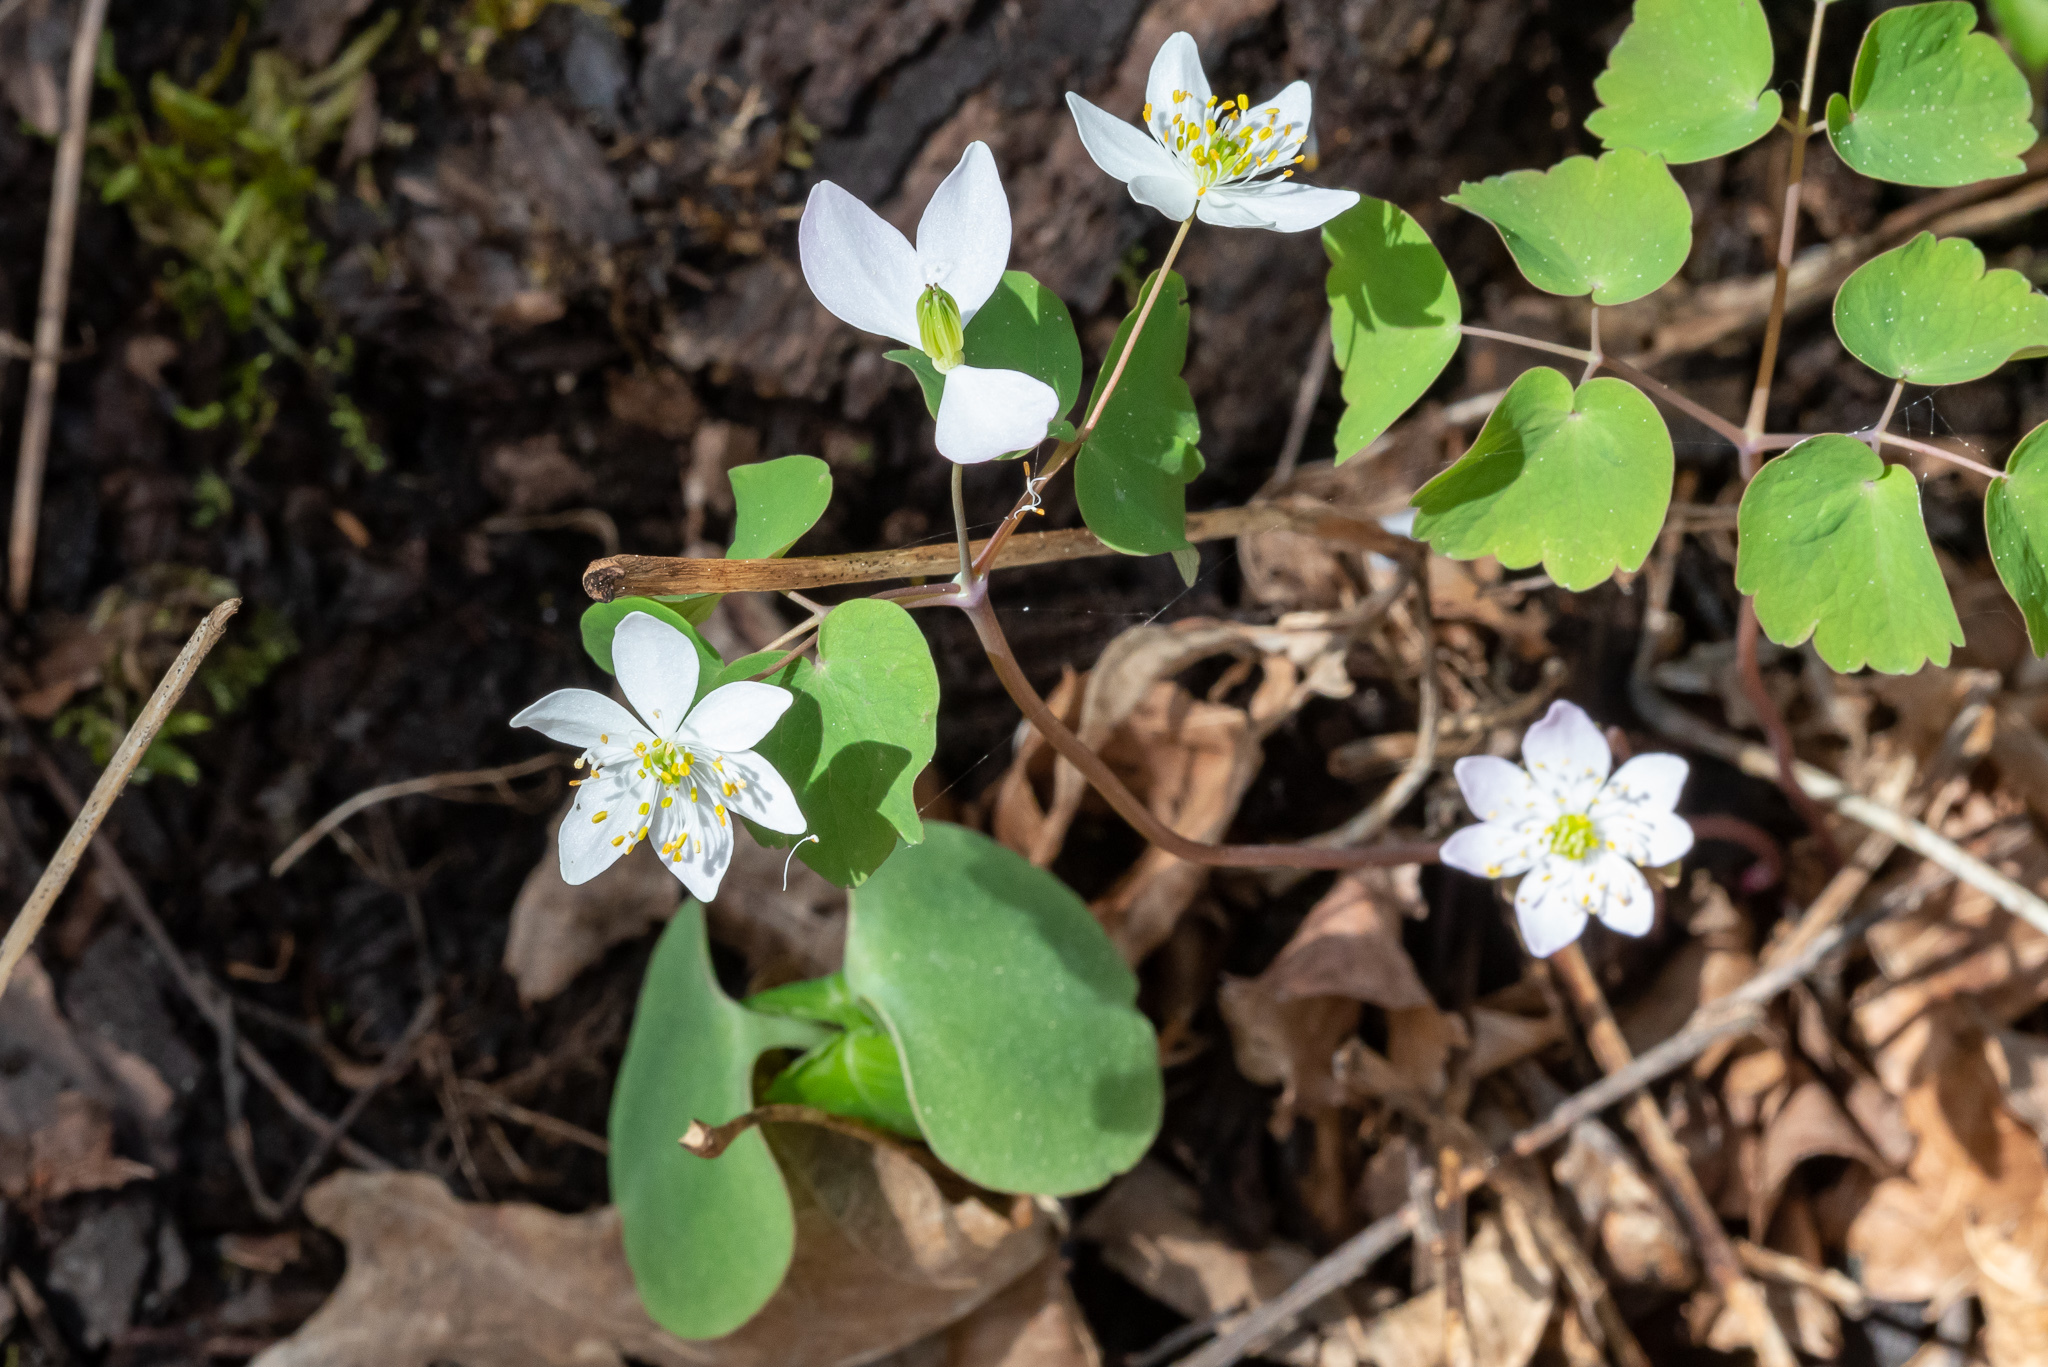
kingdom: Plantae
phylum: Tracheophyta
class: Magnoliopsida
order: Ranunculales
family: Ranunculaceae
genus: Thalictrum
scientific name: Thalictrum thalictroides
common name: Rue-anemone
